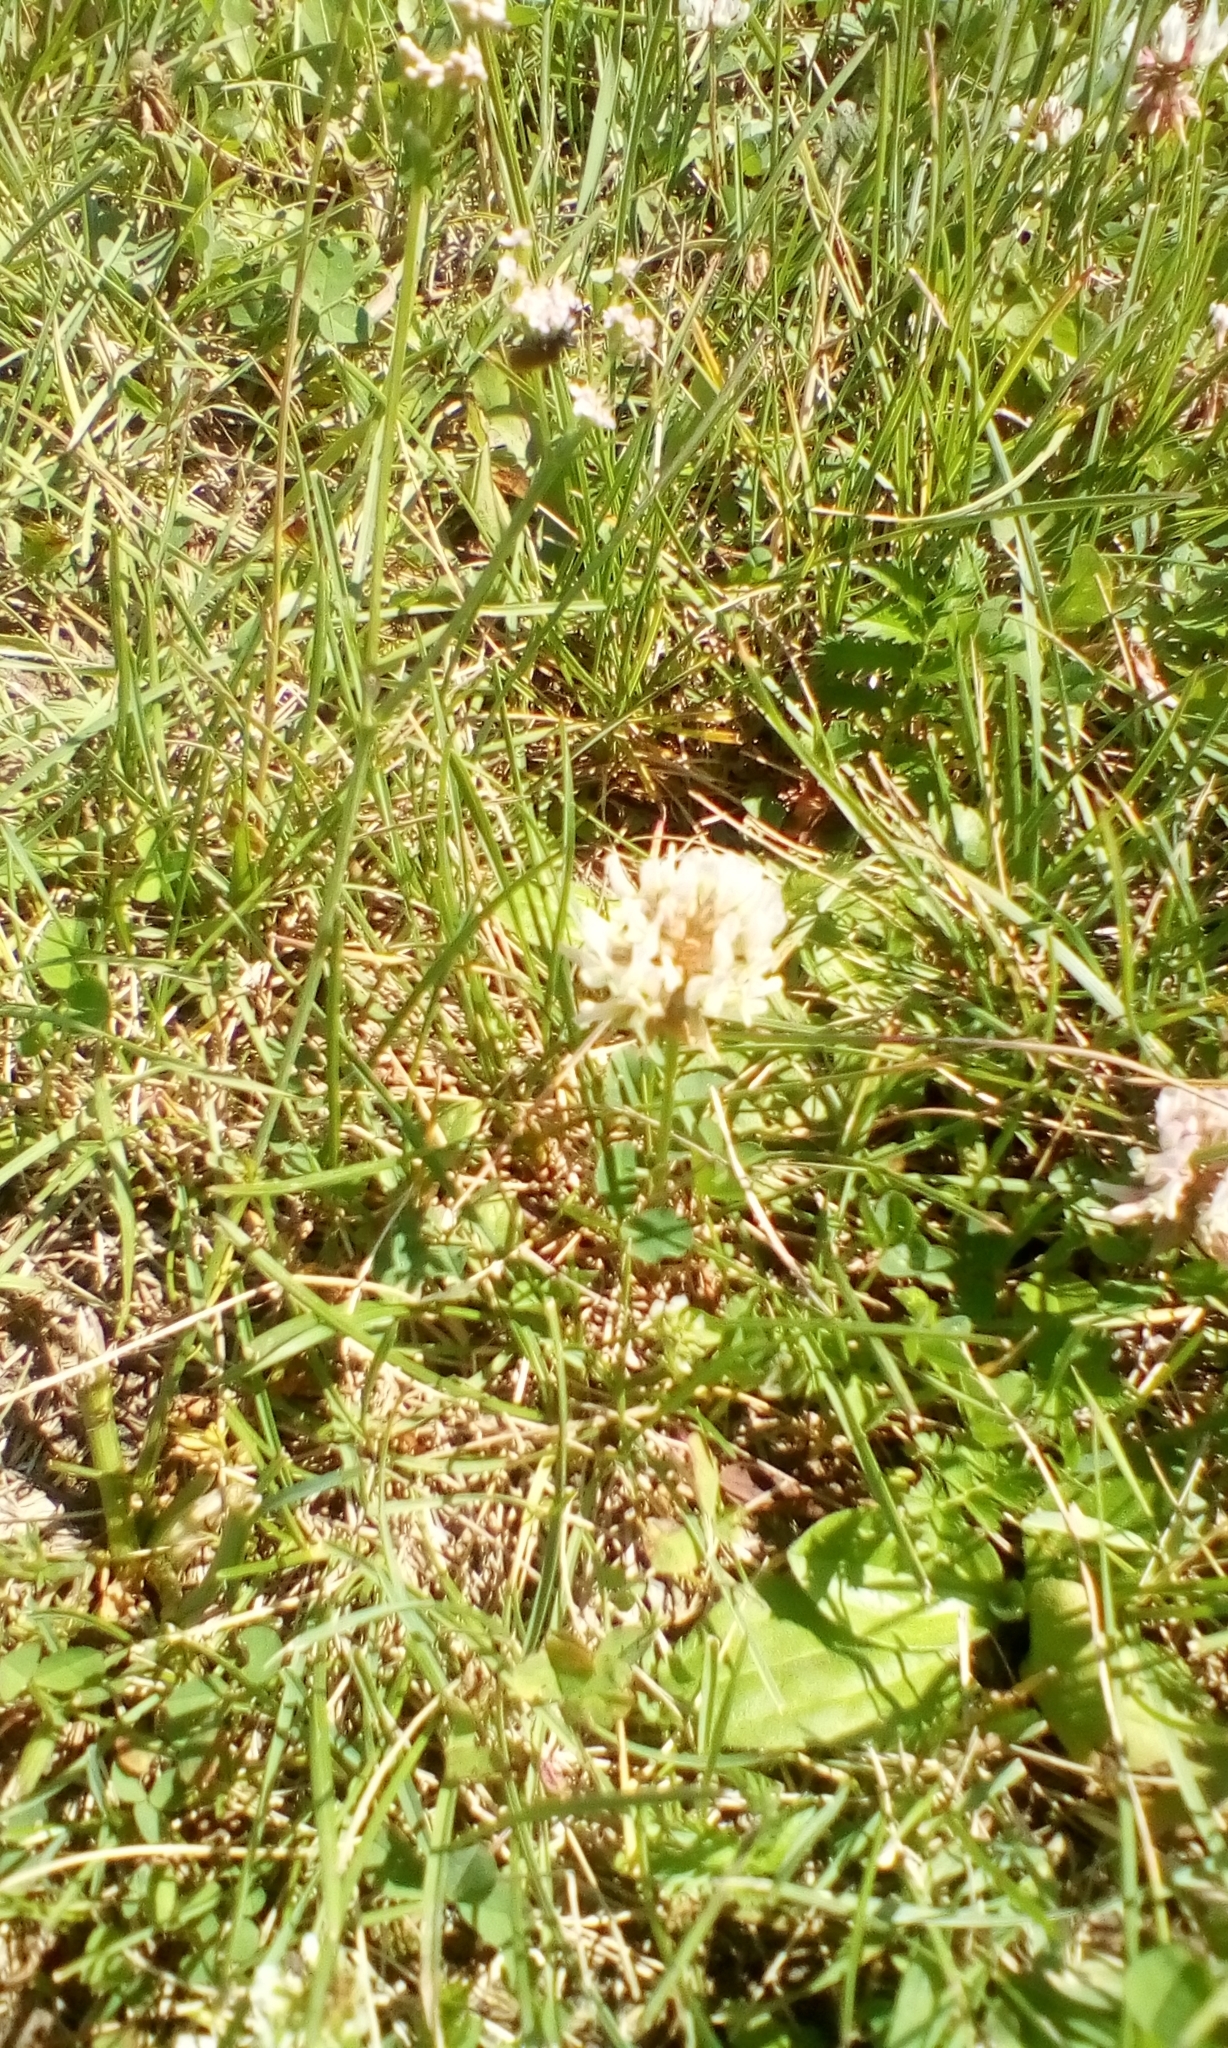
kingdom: Plantae
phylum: Tracheophyta
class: Magnoliopsida
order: Fabales
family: Fabaceae
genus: Trifolium
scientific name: Trifolium repens
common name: White clover
